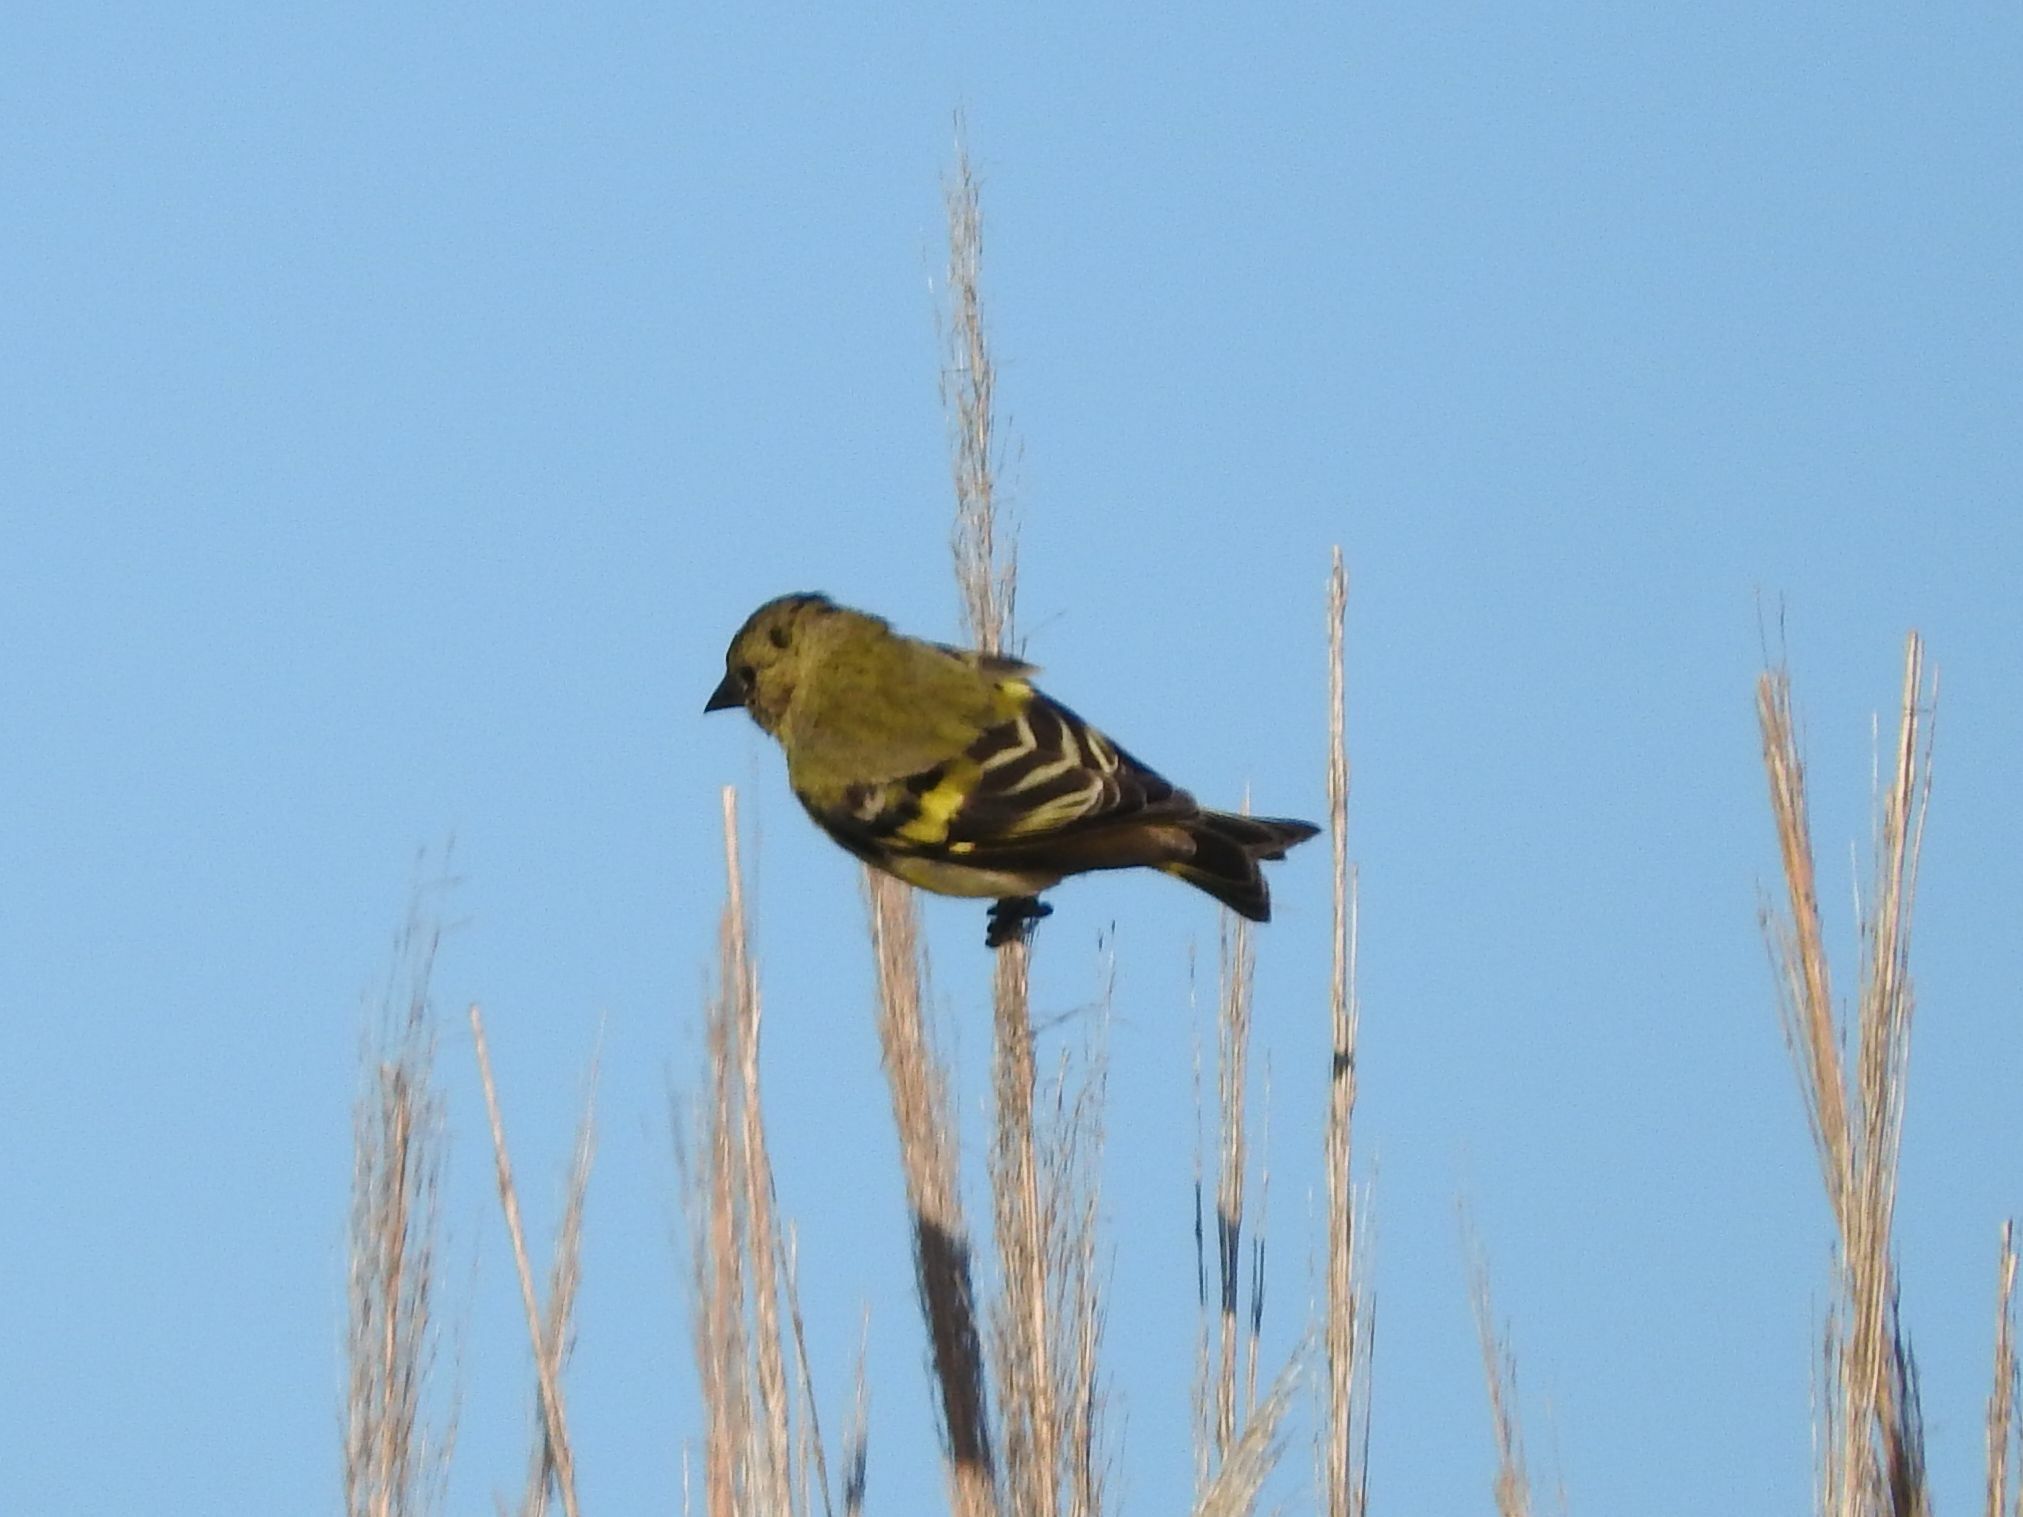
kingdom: Animalia
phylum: Chordata
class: Aves
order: Passeriformes
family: Fringillidae
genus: Spinus
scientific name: Spinus magellanicus
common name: Hooded siskin
